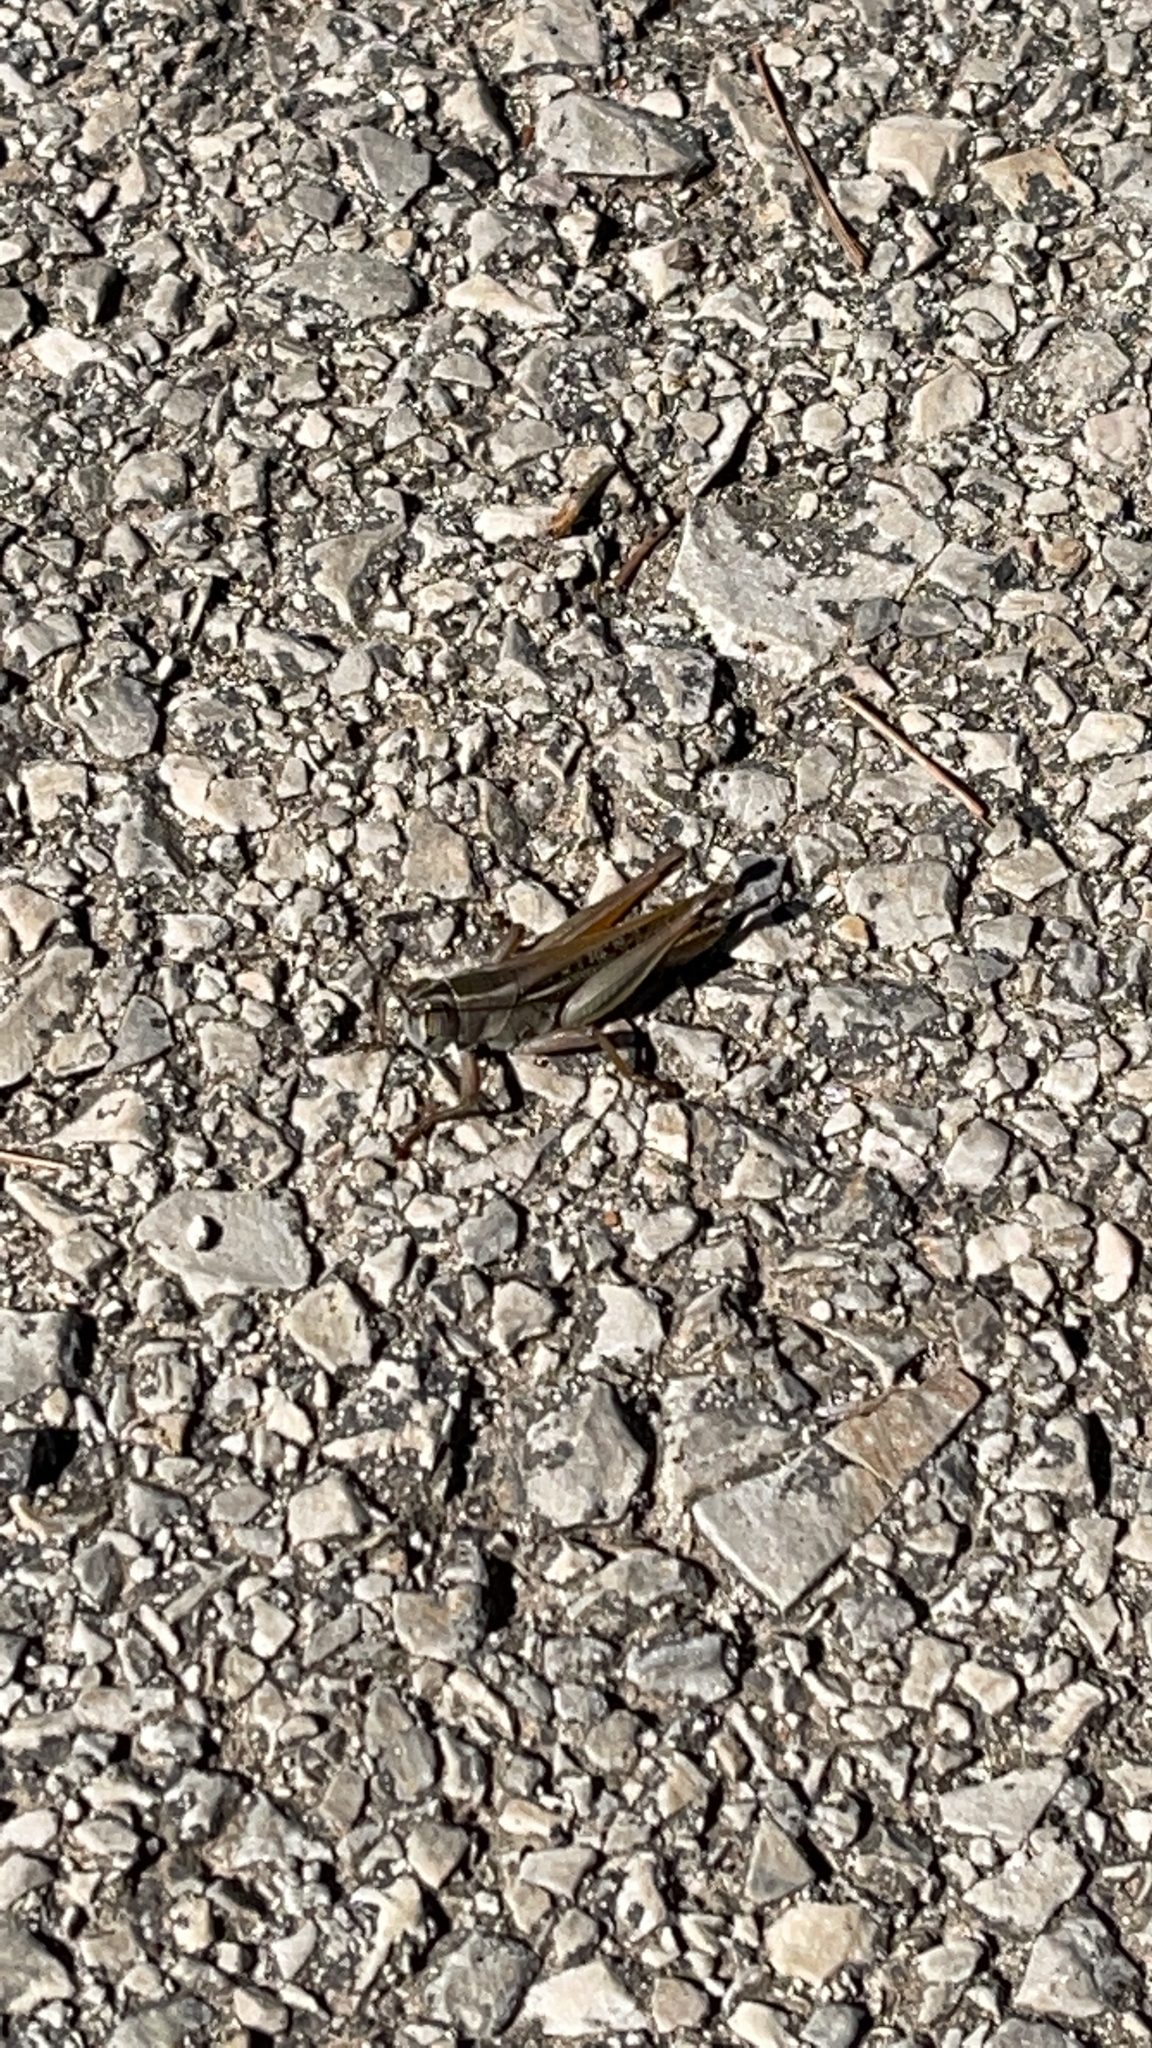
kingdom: Animalia
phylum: Arthropoda
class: Insecta
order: Orthoptera
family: Acrididae
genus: Eyprepocnemis
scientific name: Eyprepocnemis plorans
